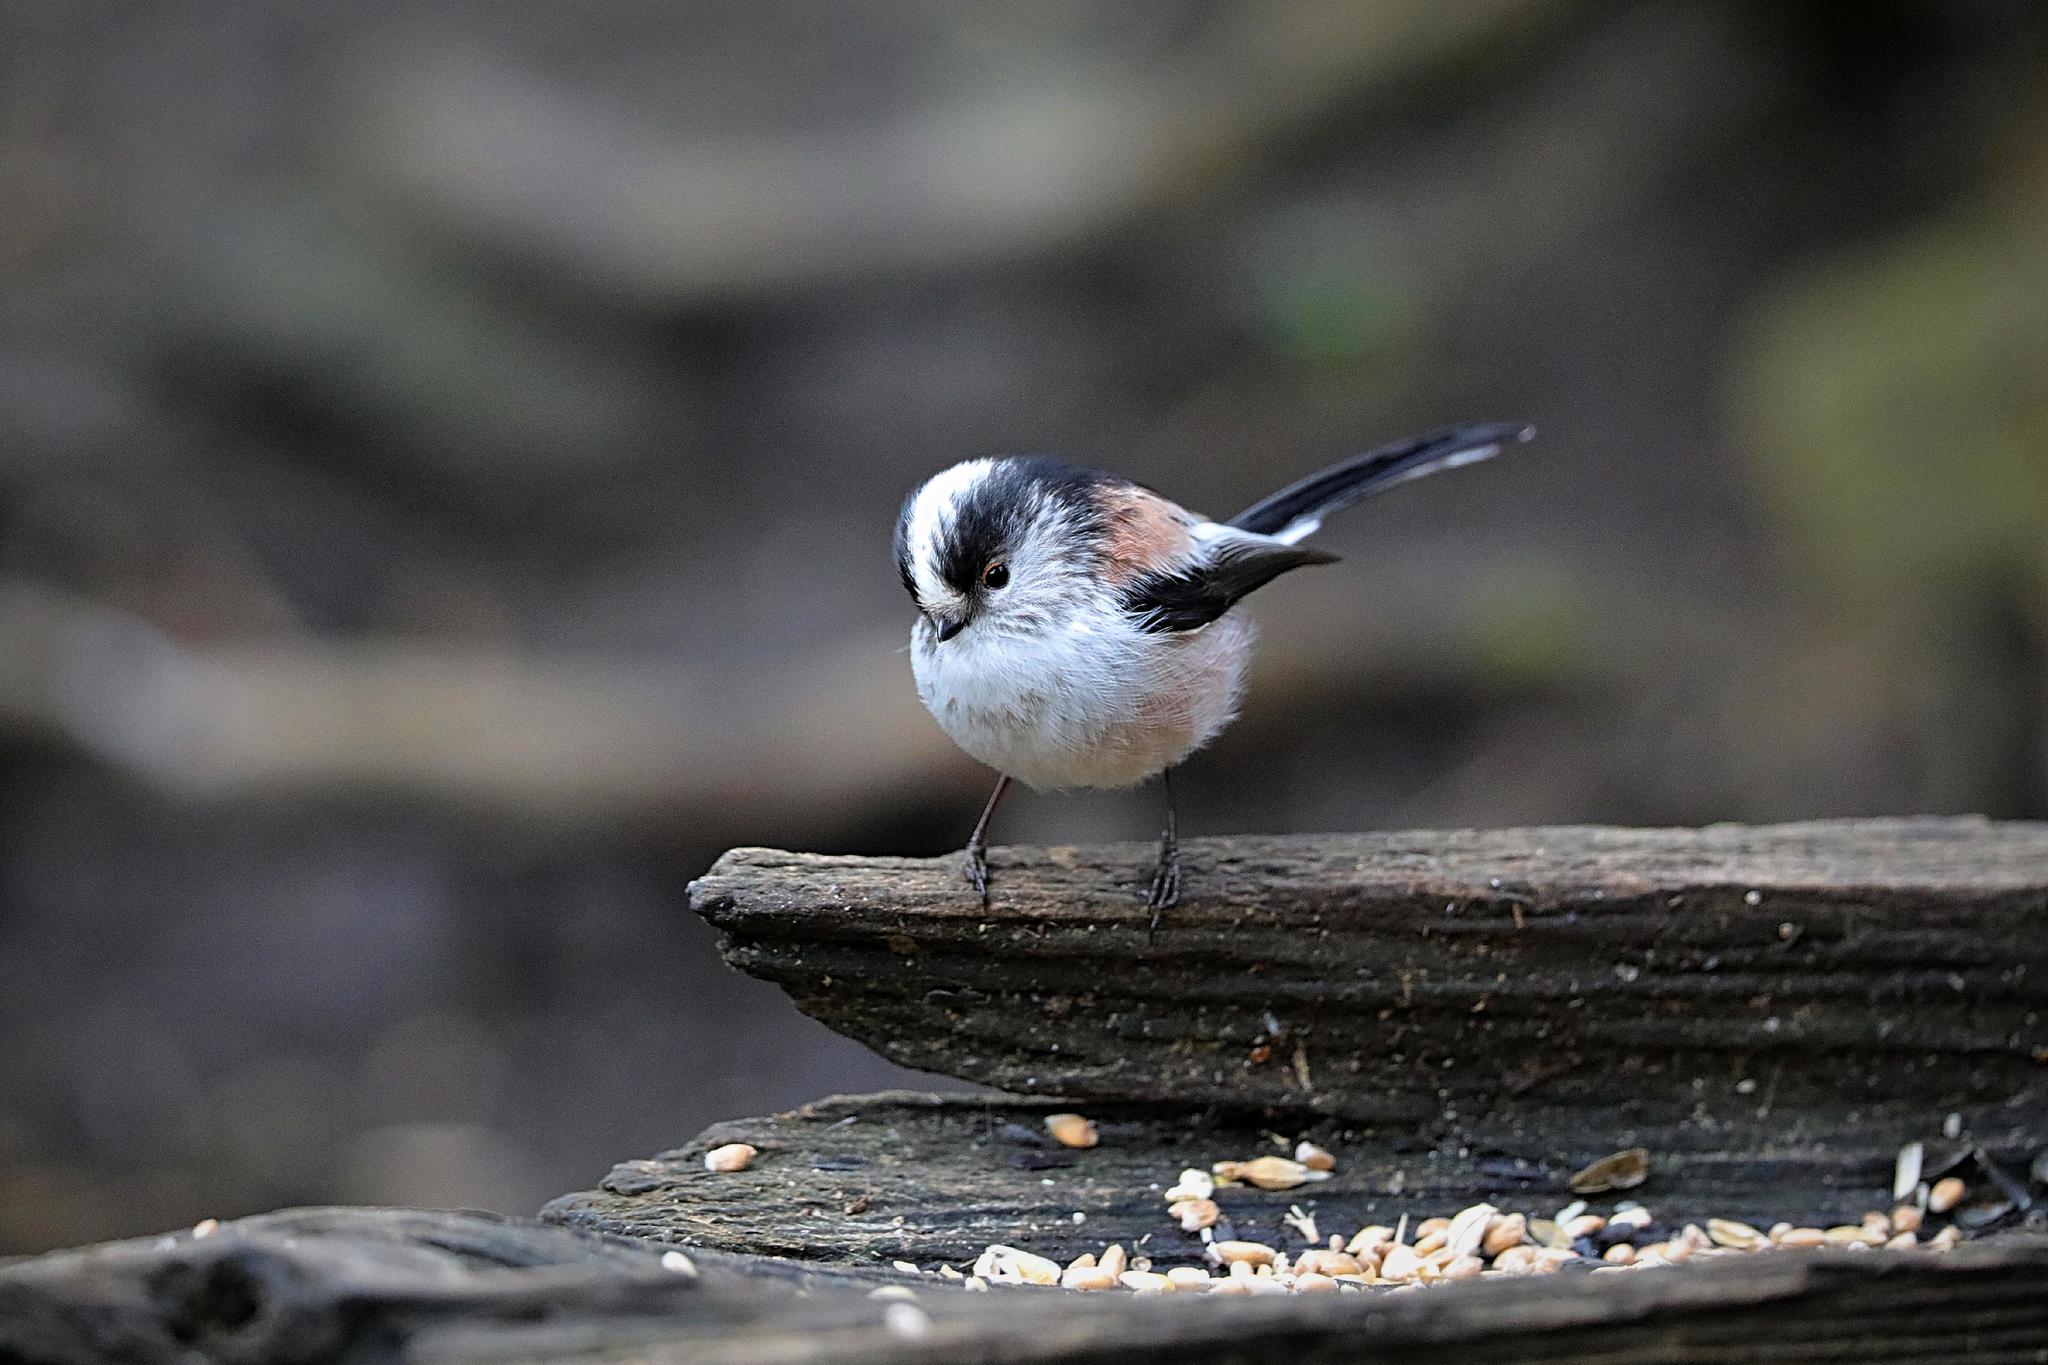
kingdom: Animalia
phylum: Chordata
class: Aves
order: Passeriformes
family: Aegithalidae
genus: Aegithalos
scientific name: Aegithalos caudatus
